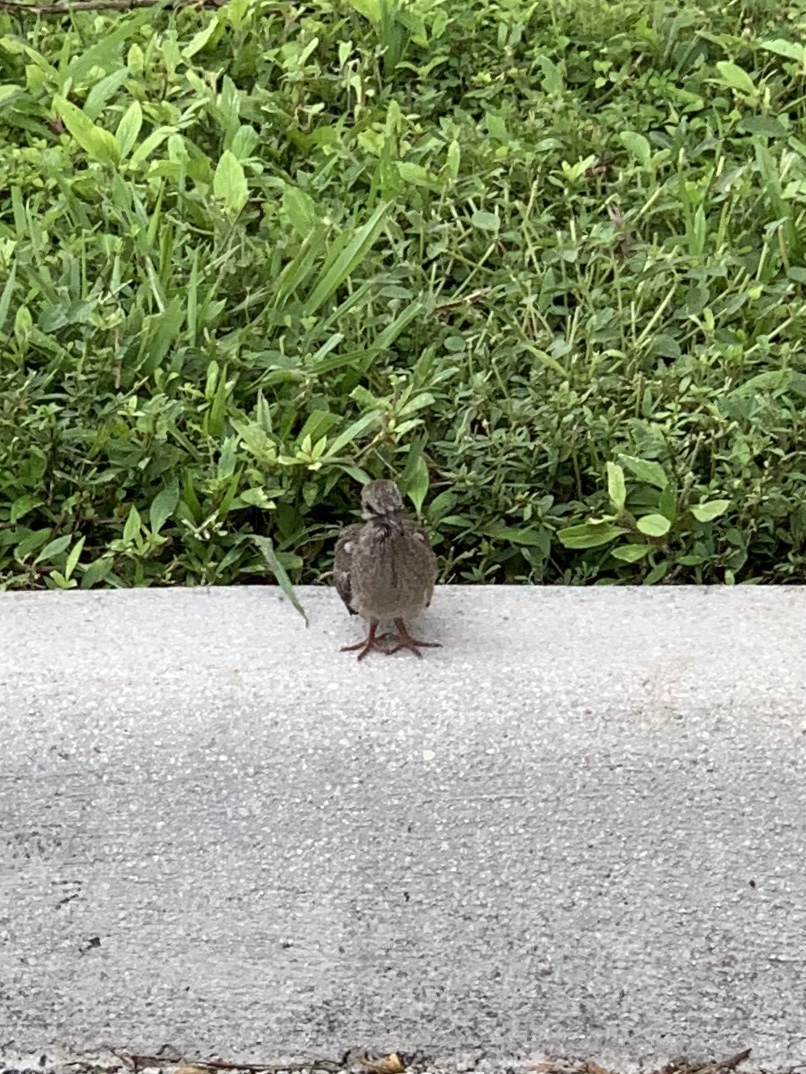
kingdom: Animalia
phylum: Chordata
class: Aves
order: Columbiformes
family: Columbidae
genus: Zenaida
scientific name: Zenaida macroura
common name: Mourning dove
